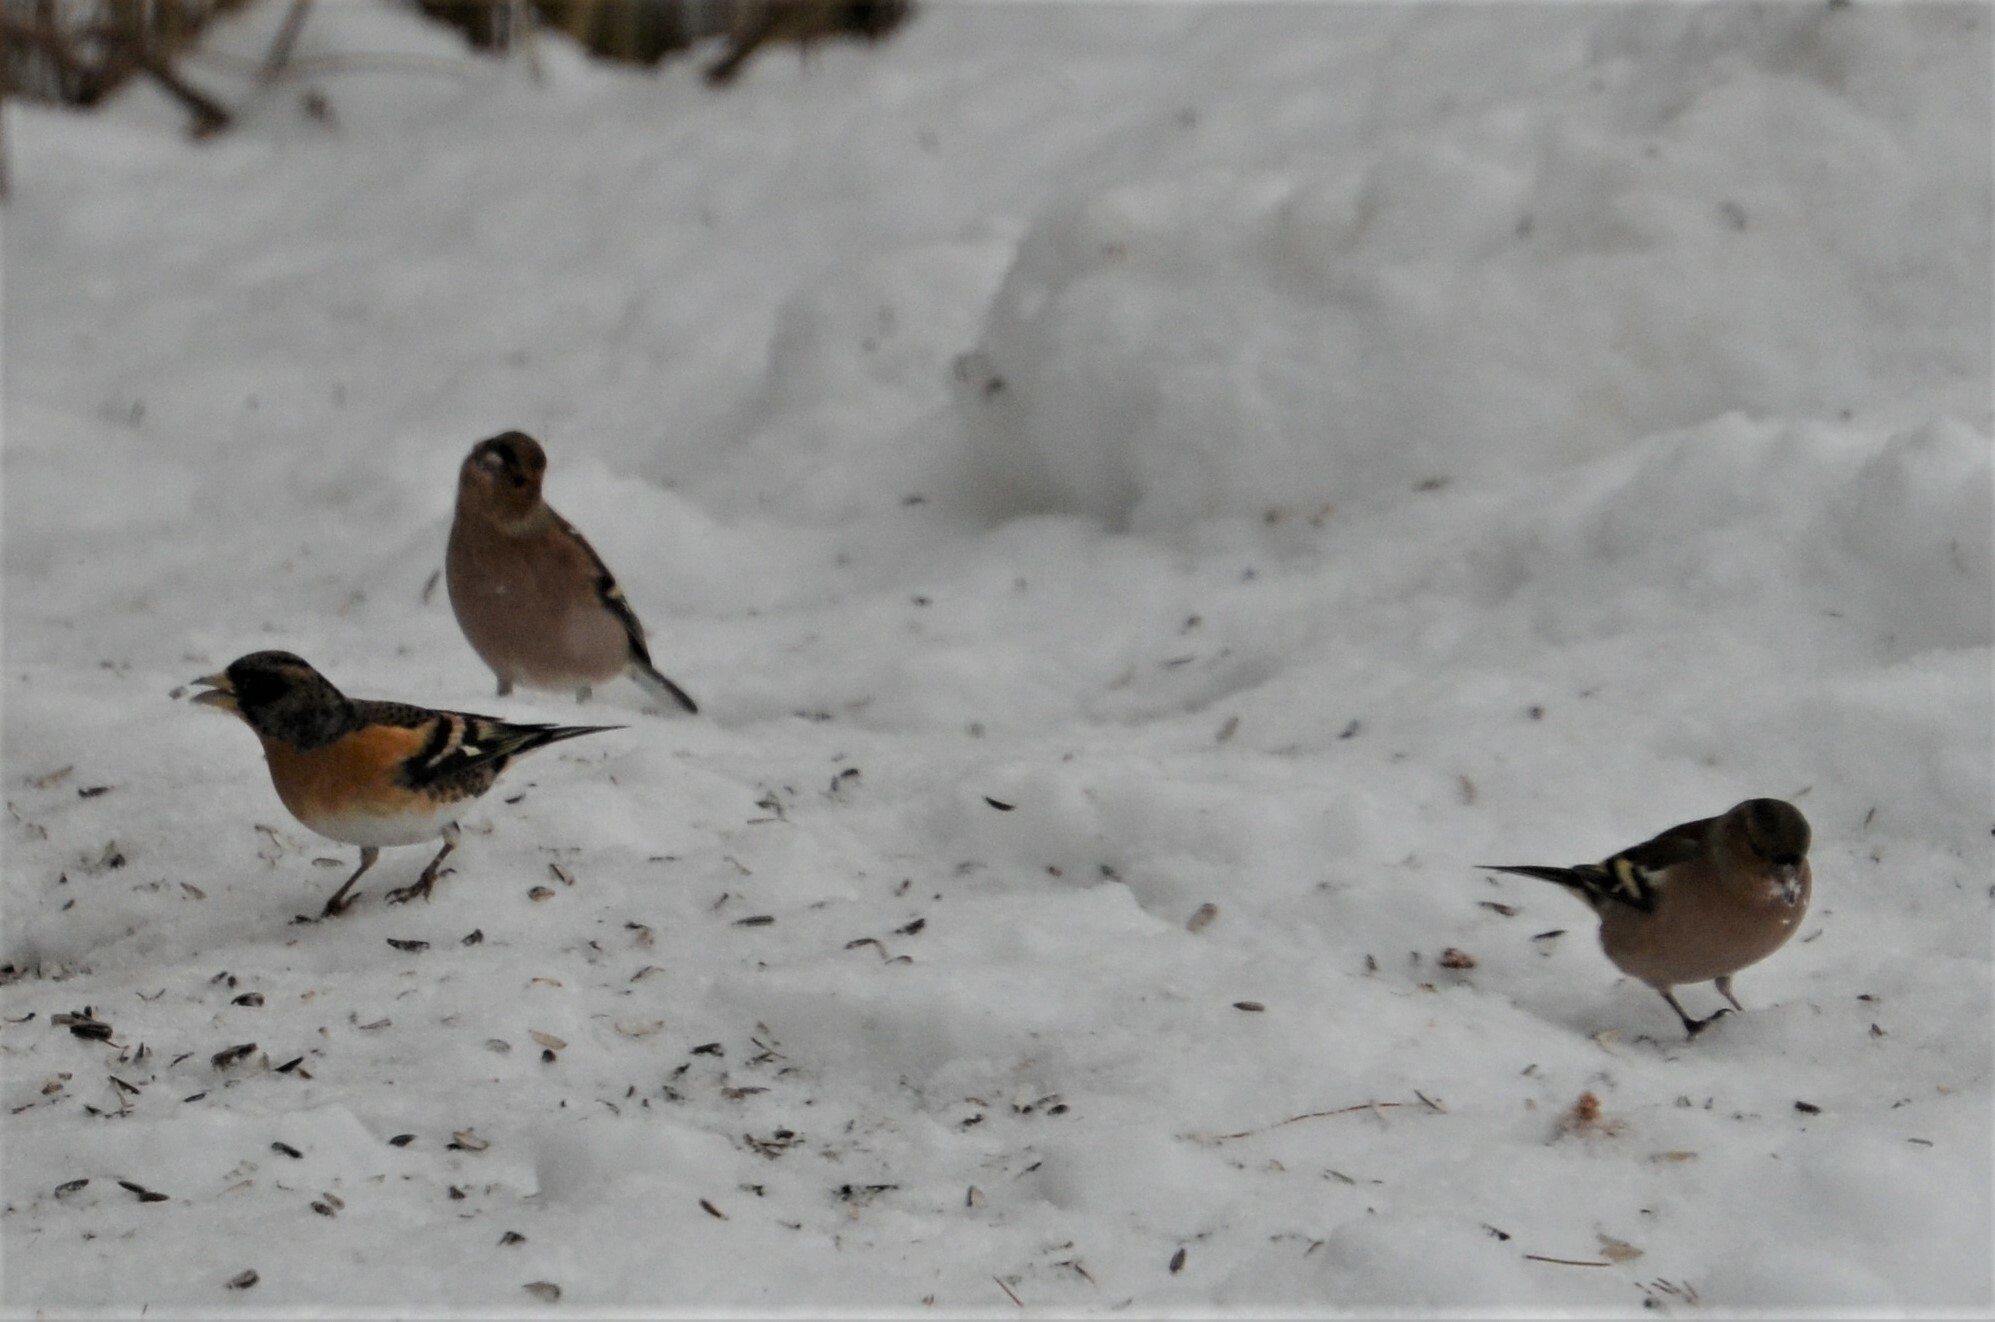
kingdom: Animalia
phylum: Chordata
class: Aves
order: Passeriformes
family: Fringillidae
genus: Fringilla
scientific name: Fringilla coelebs
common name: Common chaffinch
